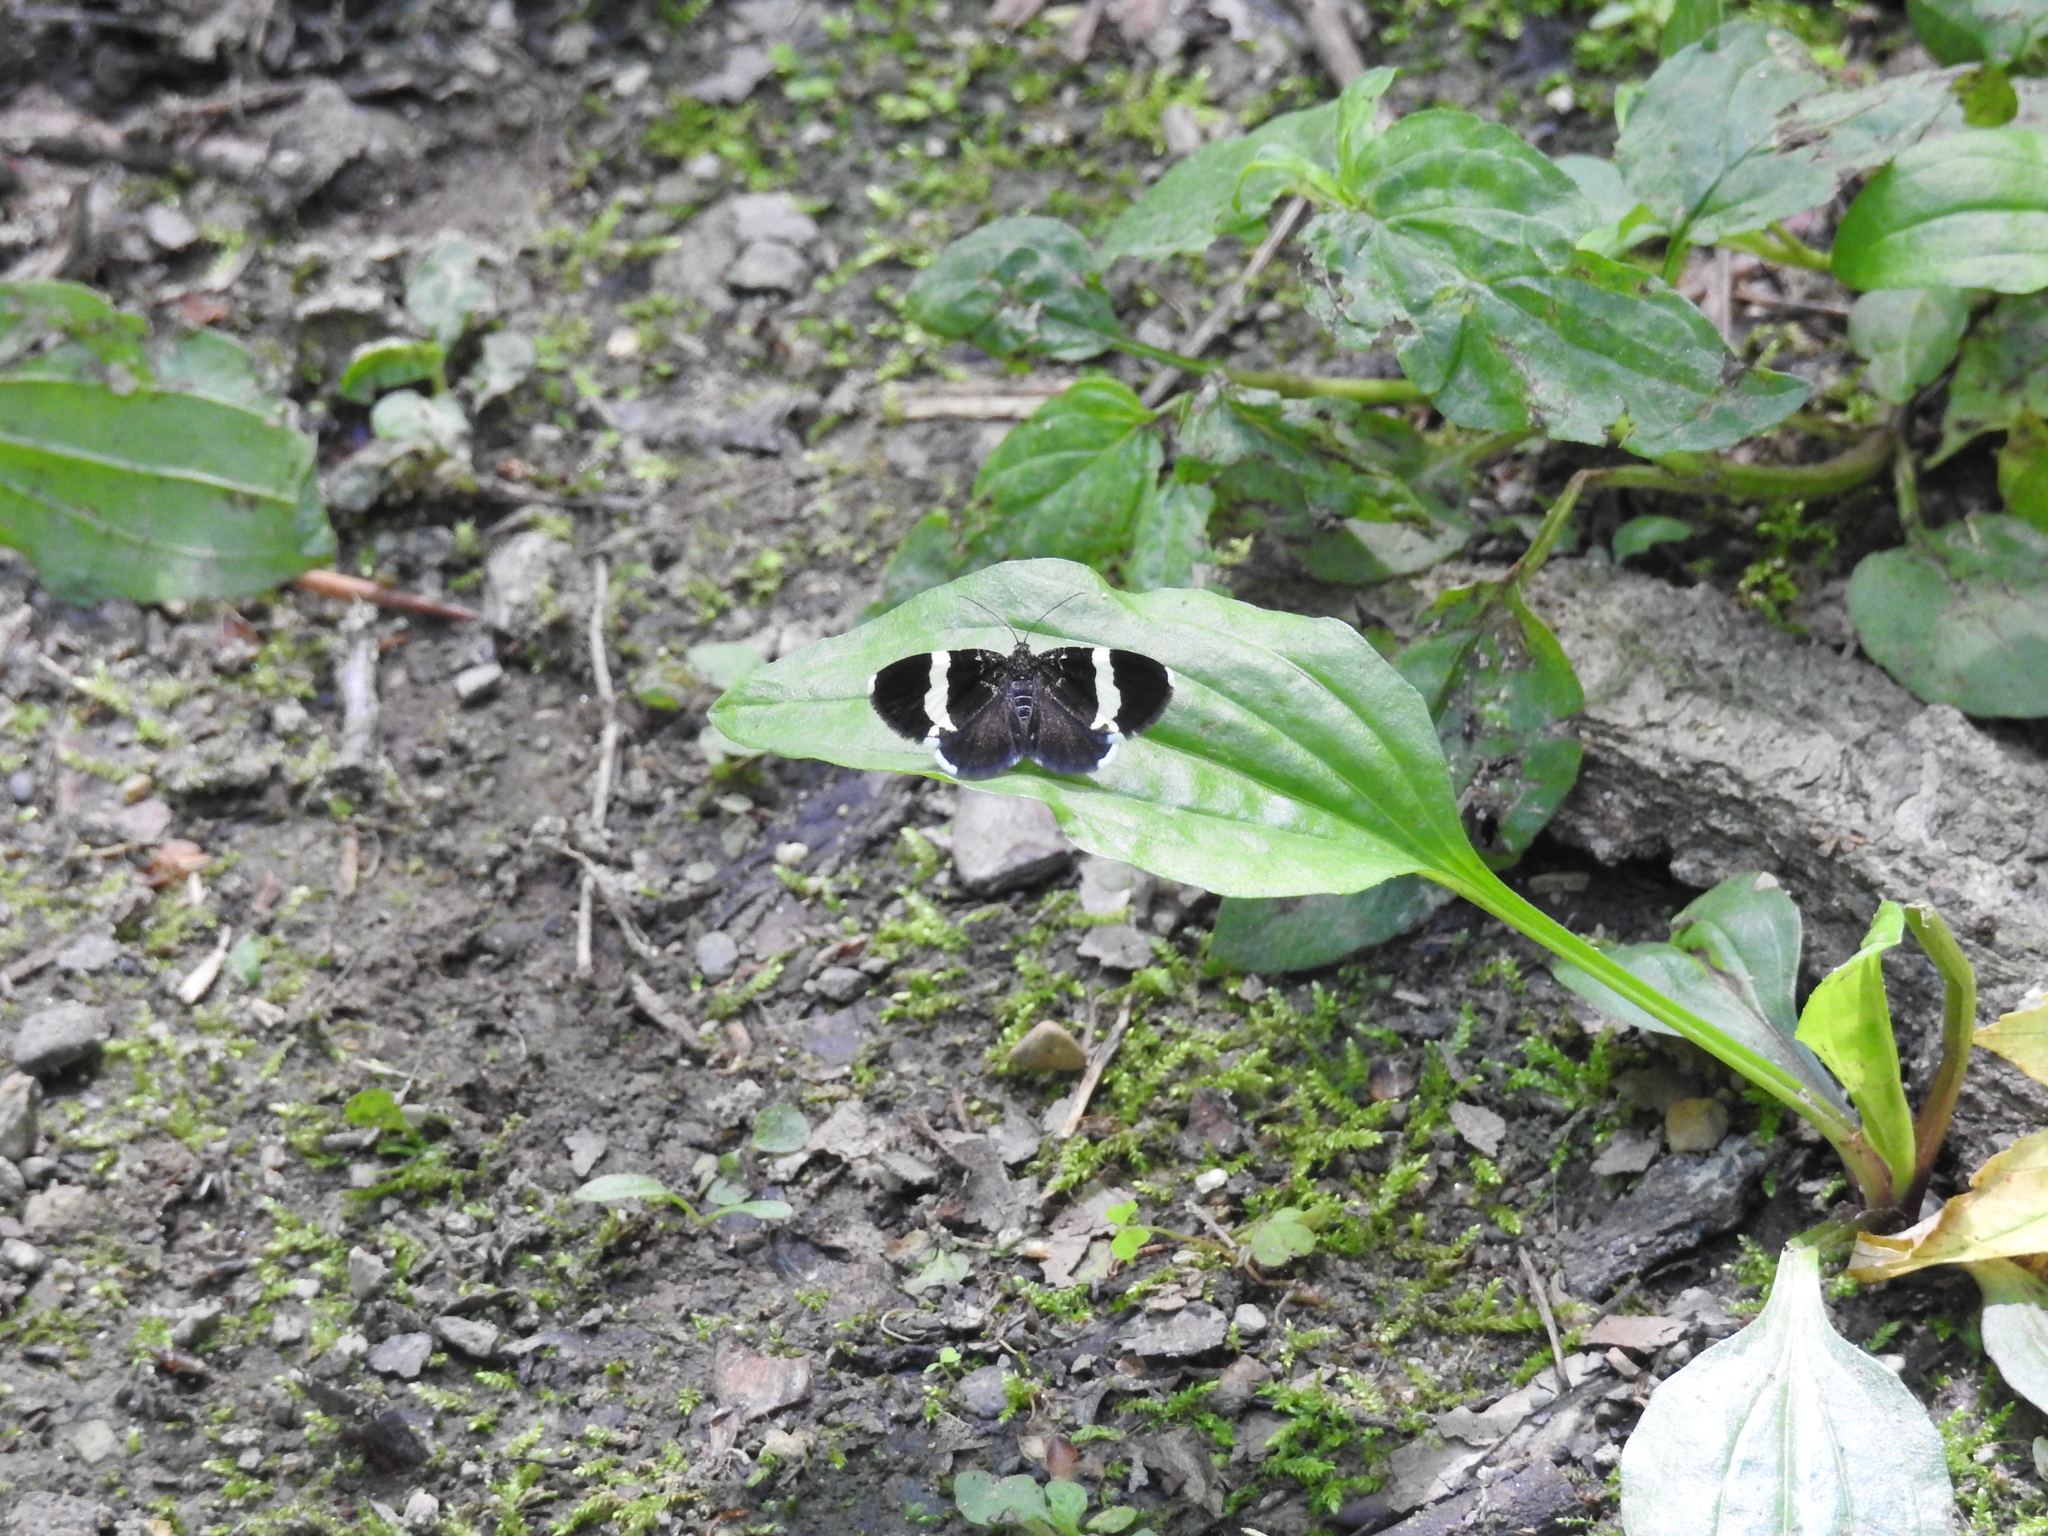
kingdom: Animalia
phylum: Arthropoda
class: Insecta
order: Lepidoptera
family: Geometridae
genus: Trichodezia
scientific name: Trichodezia albovittata
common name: White striped black
